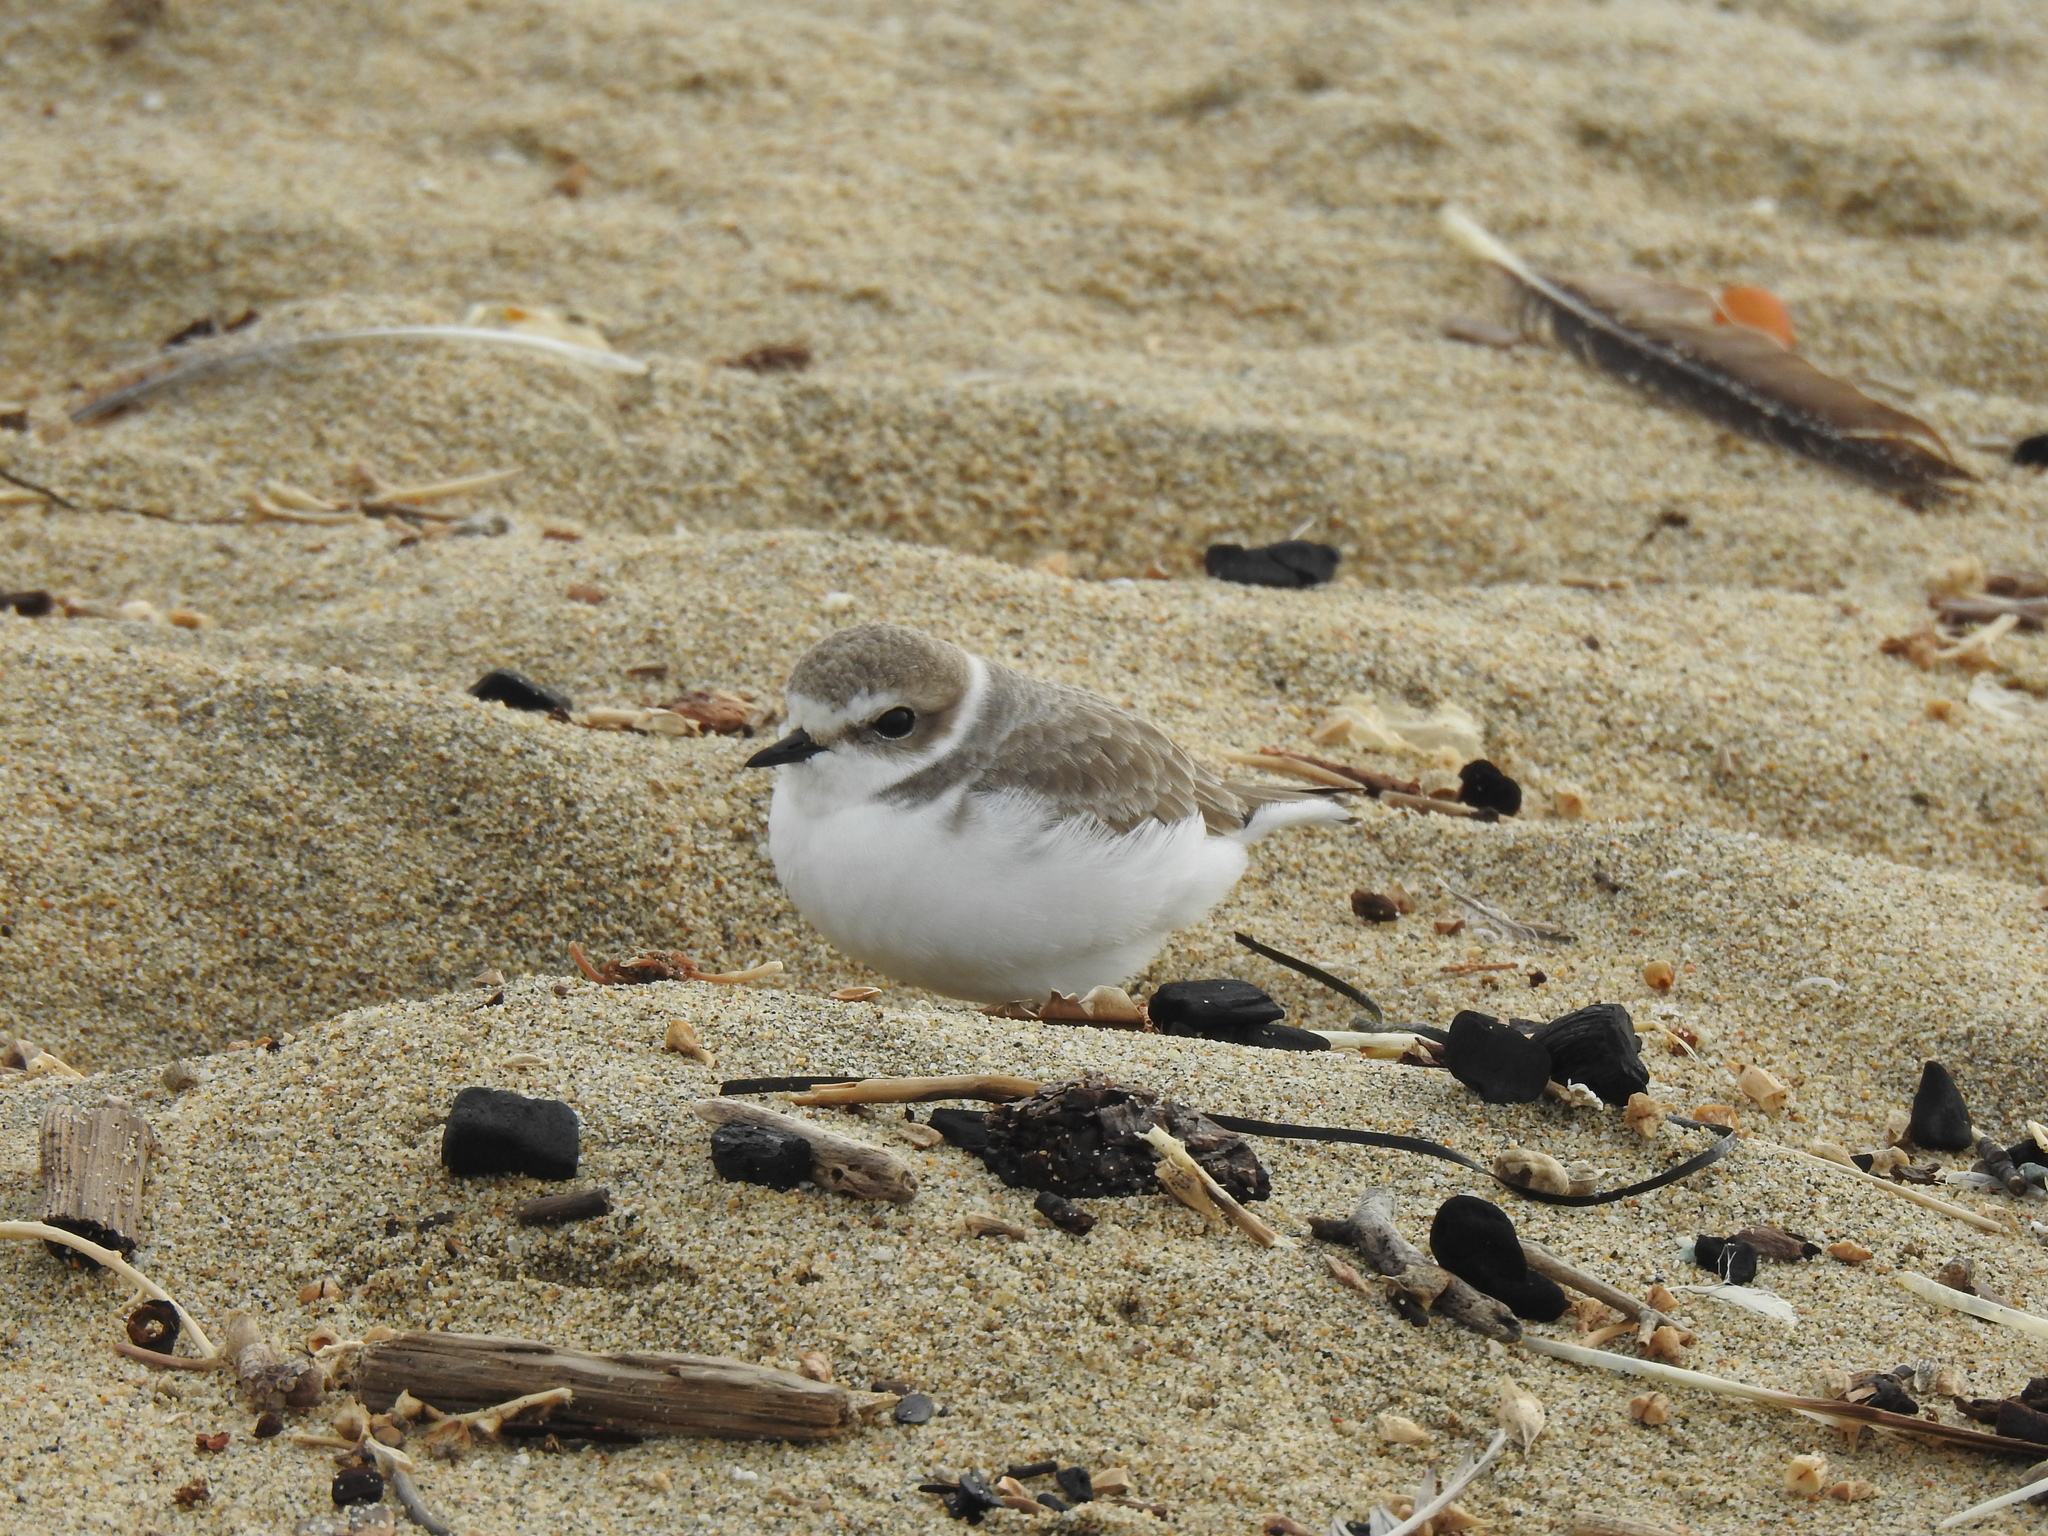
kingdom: Animalia
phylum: Chordata
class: Aves
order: Charadriiformes
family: Charadriidae
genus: Anarhynchus
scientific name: Anarhynchus
